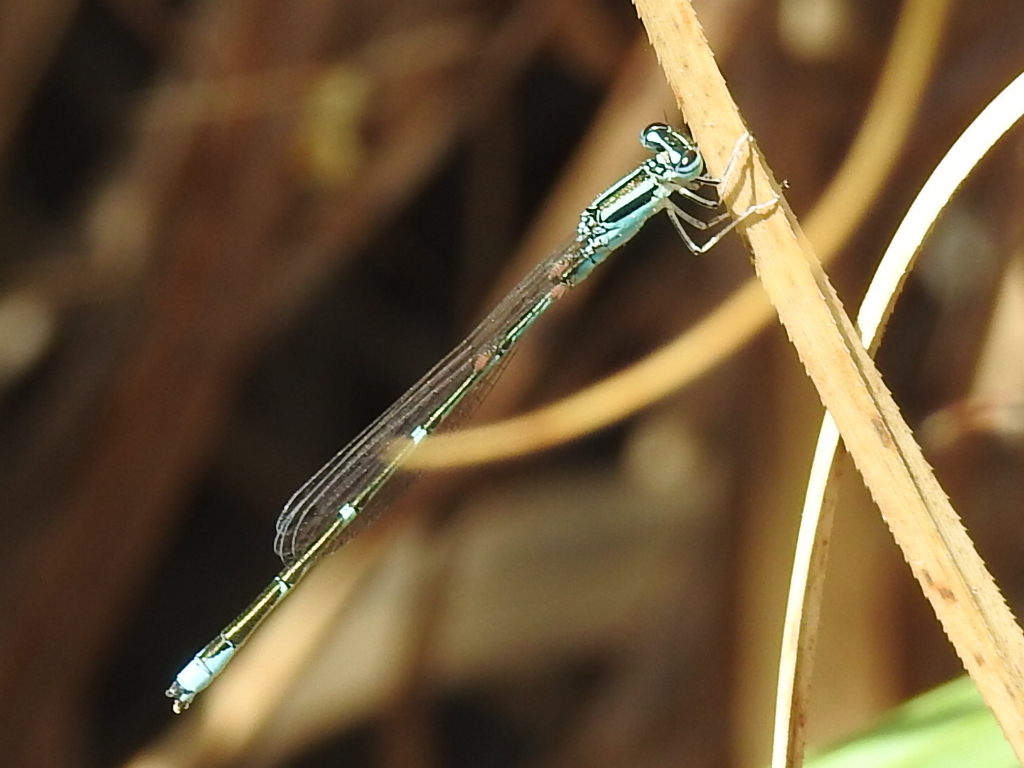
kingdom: Animalia
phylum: Arthropoda
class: Insecta
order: Odonata
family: Coenagrionidae
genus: Enallagma
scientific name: Enallagma exsulans
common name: Stream bluet
